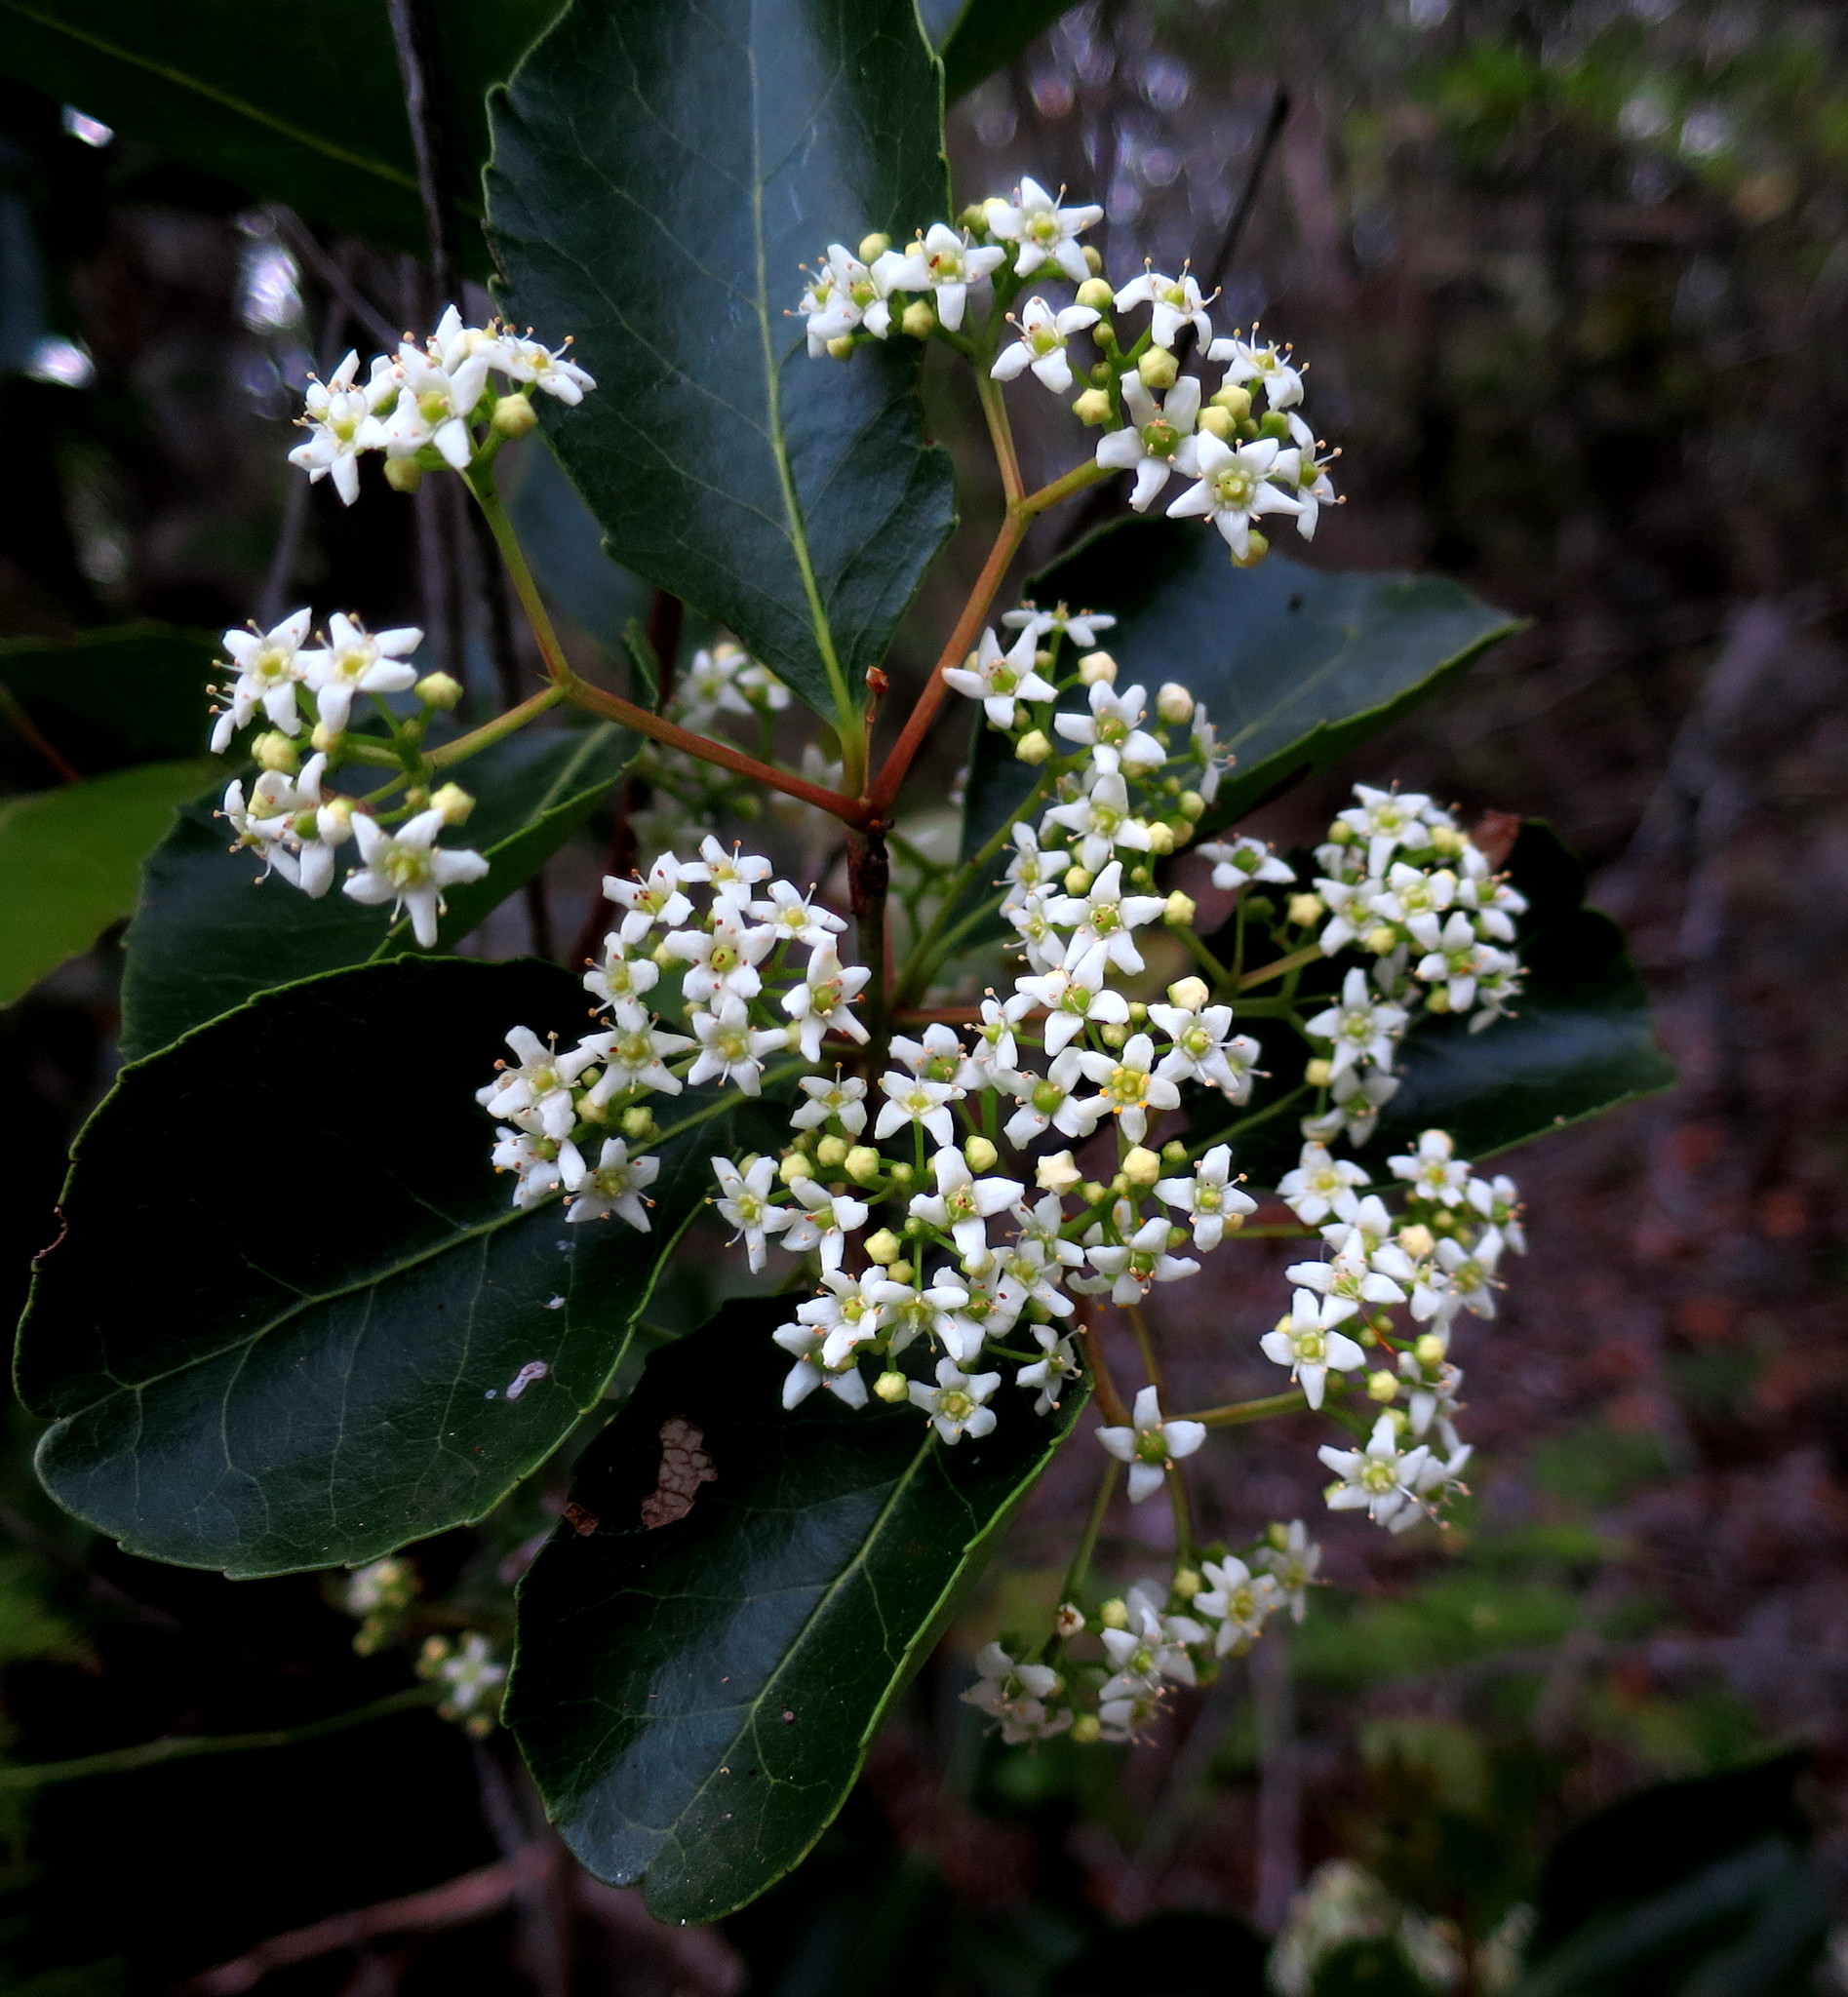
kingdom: Plantae
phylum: Tracheophyta
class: Magnoliopsida
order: Celastrales
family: Celastraceae
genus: Cassine
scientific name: Cassine peragua
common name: Cape saffron
